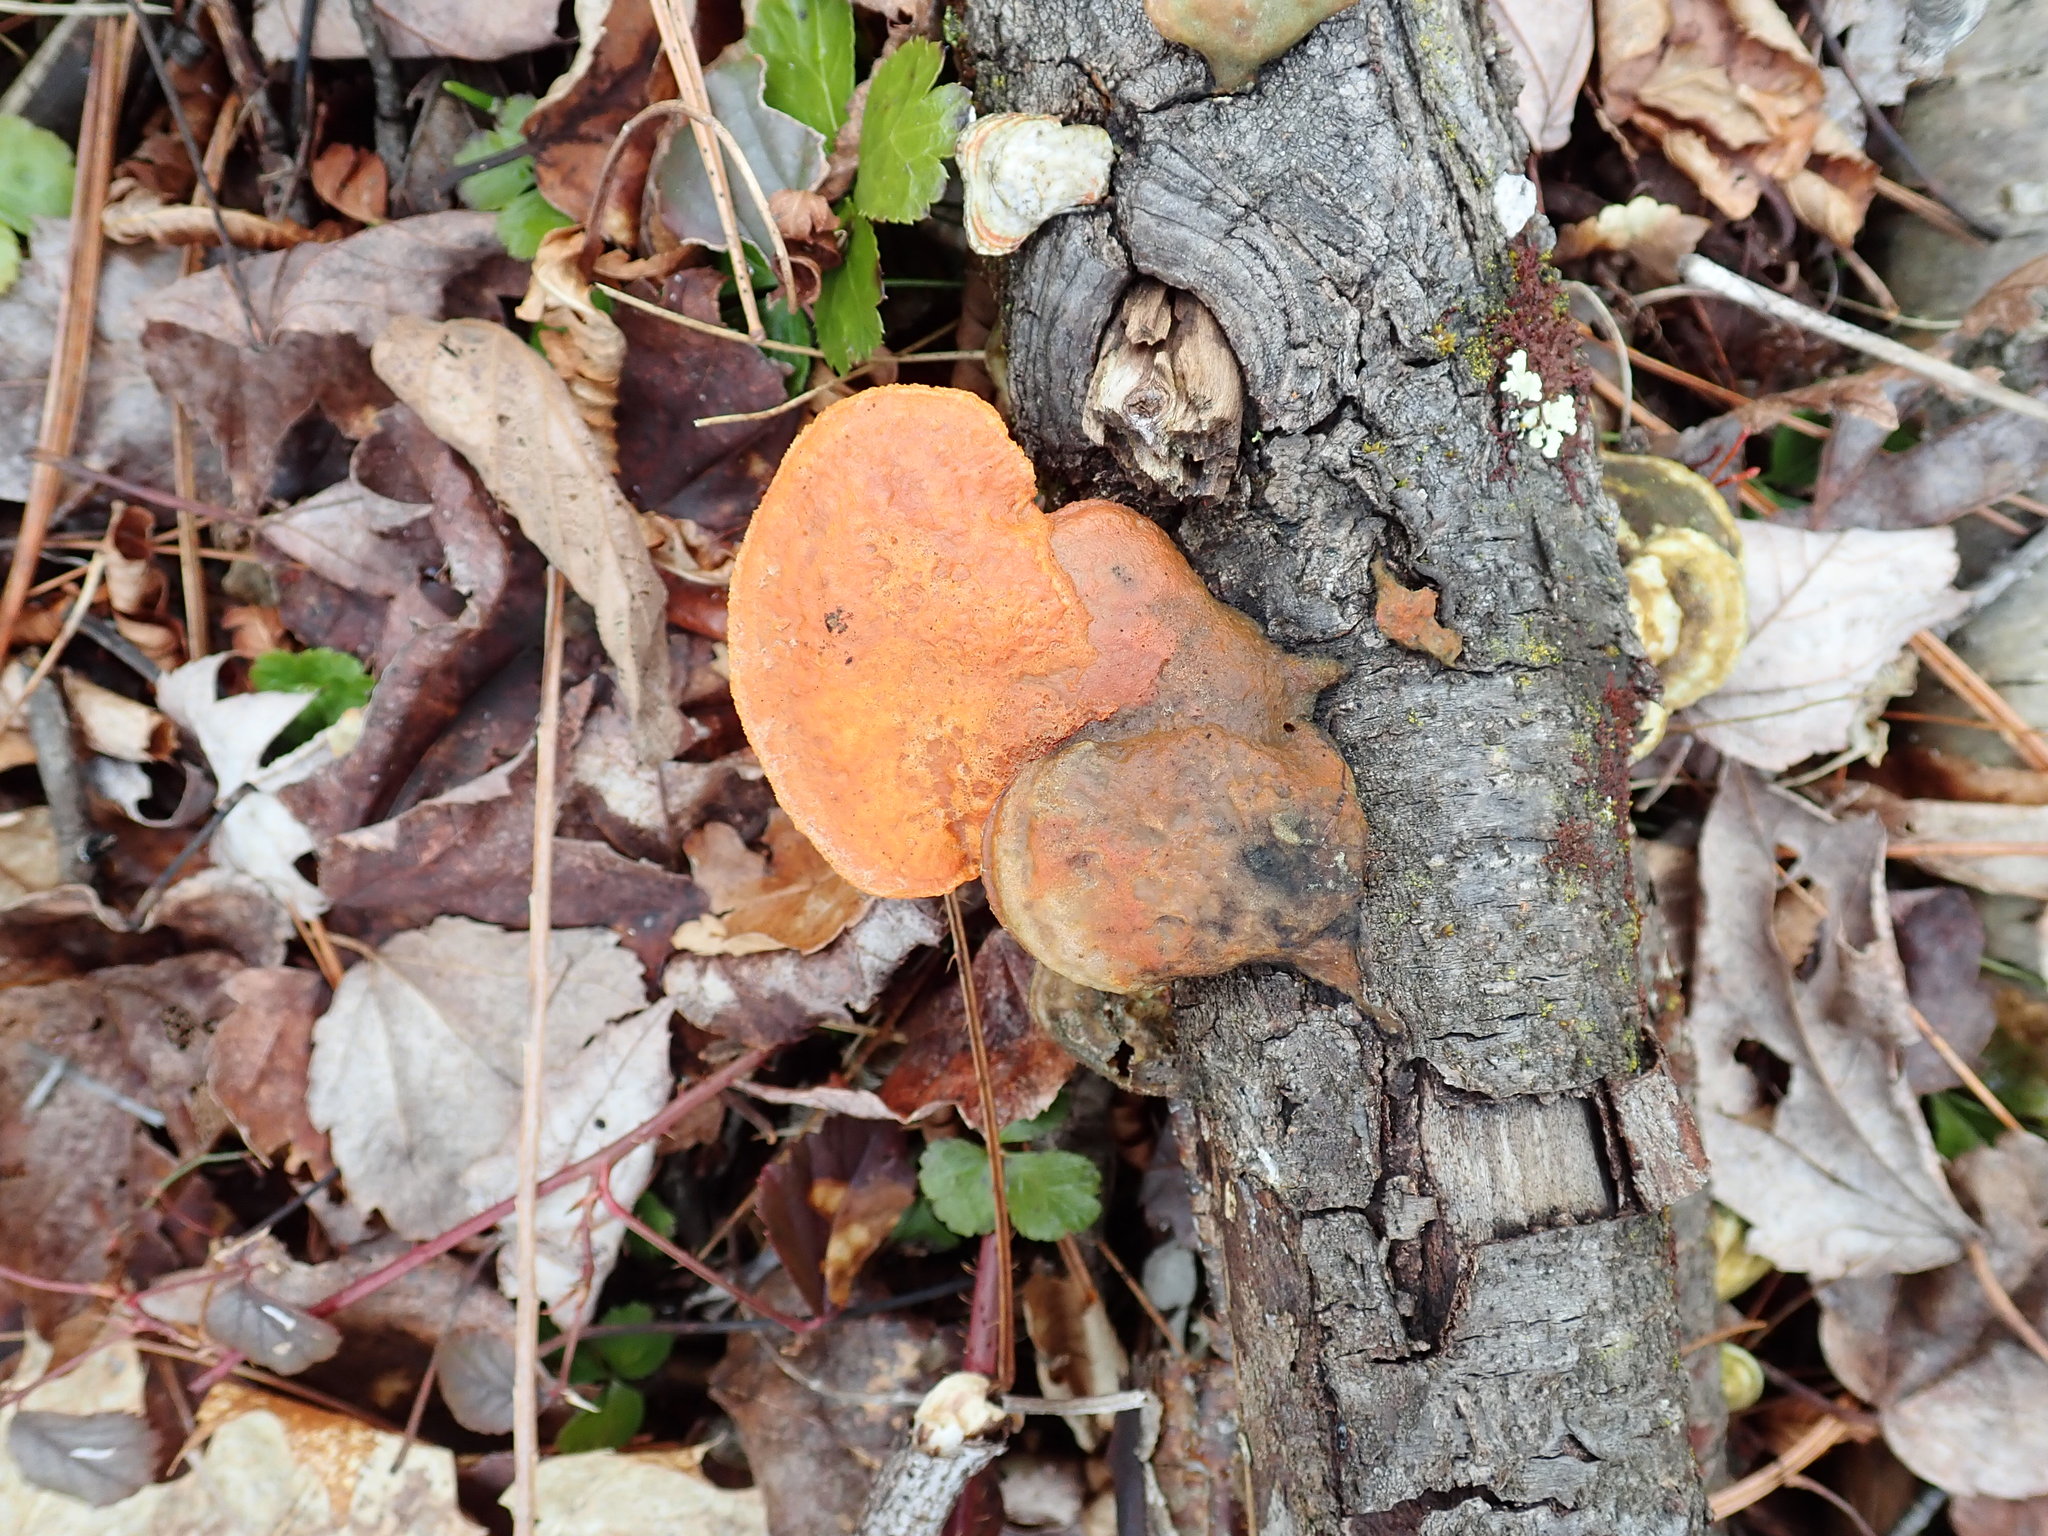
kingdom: Fungi
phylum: Basidiomycota
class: Agaricomycetes
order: Polyporales
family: Polyporaceae
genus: Trametes
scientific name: Trametes cinnabarina
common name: Northern cinnabar polypore
